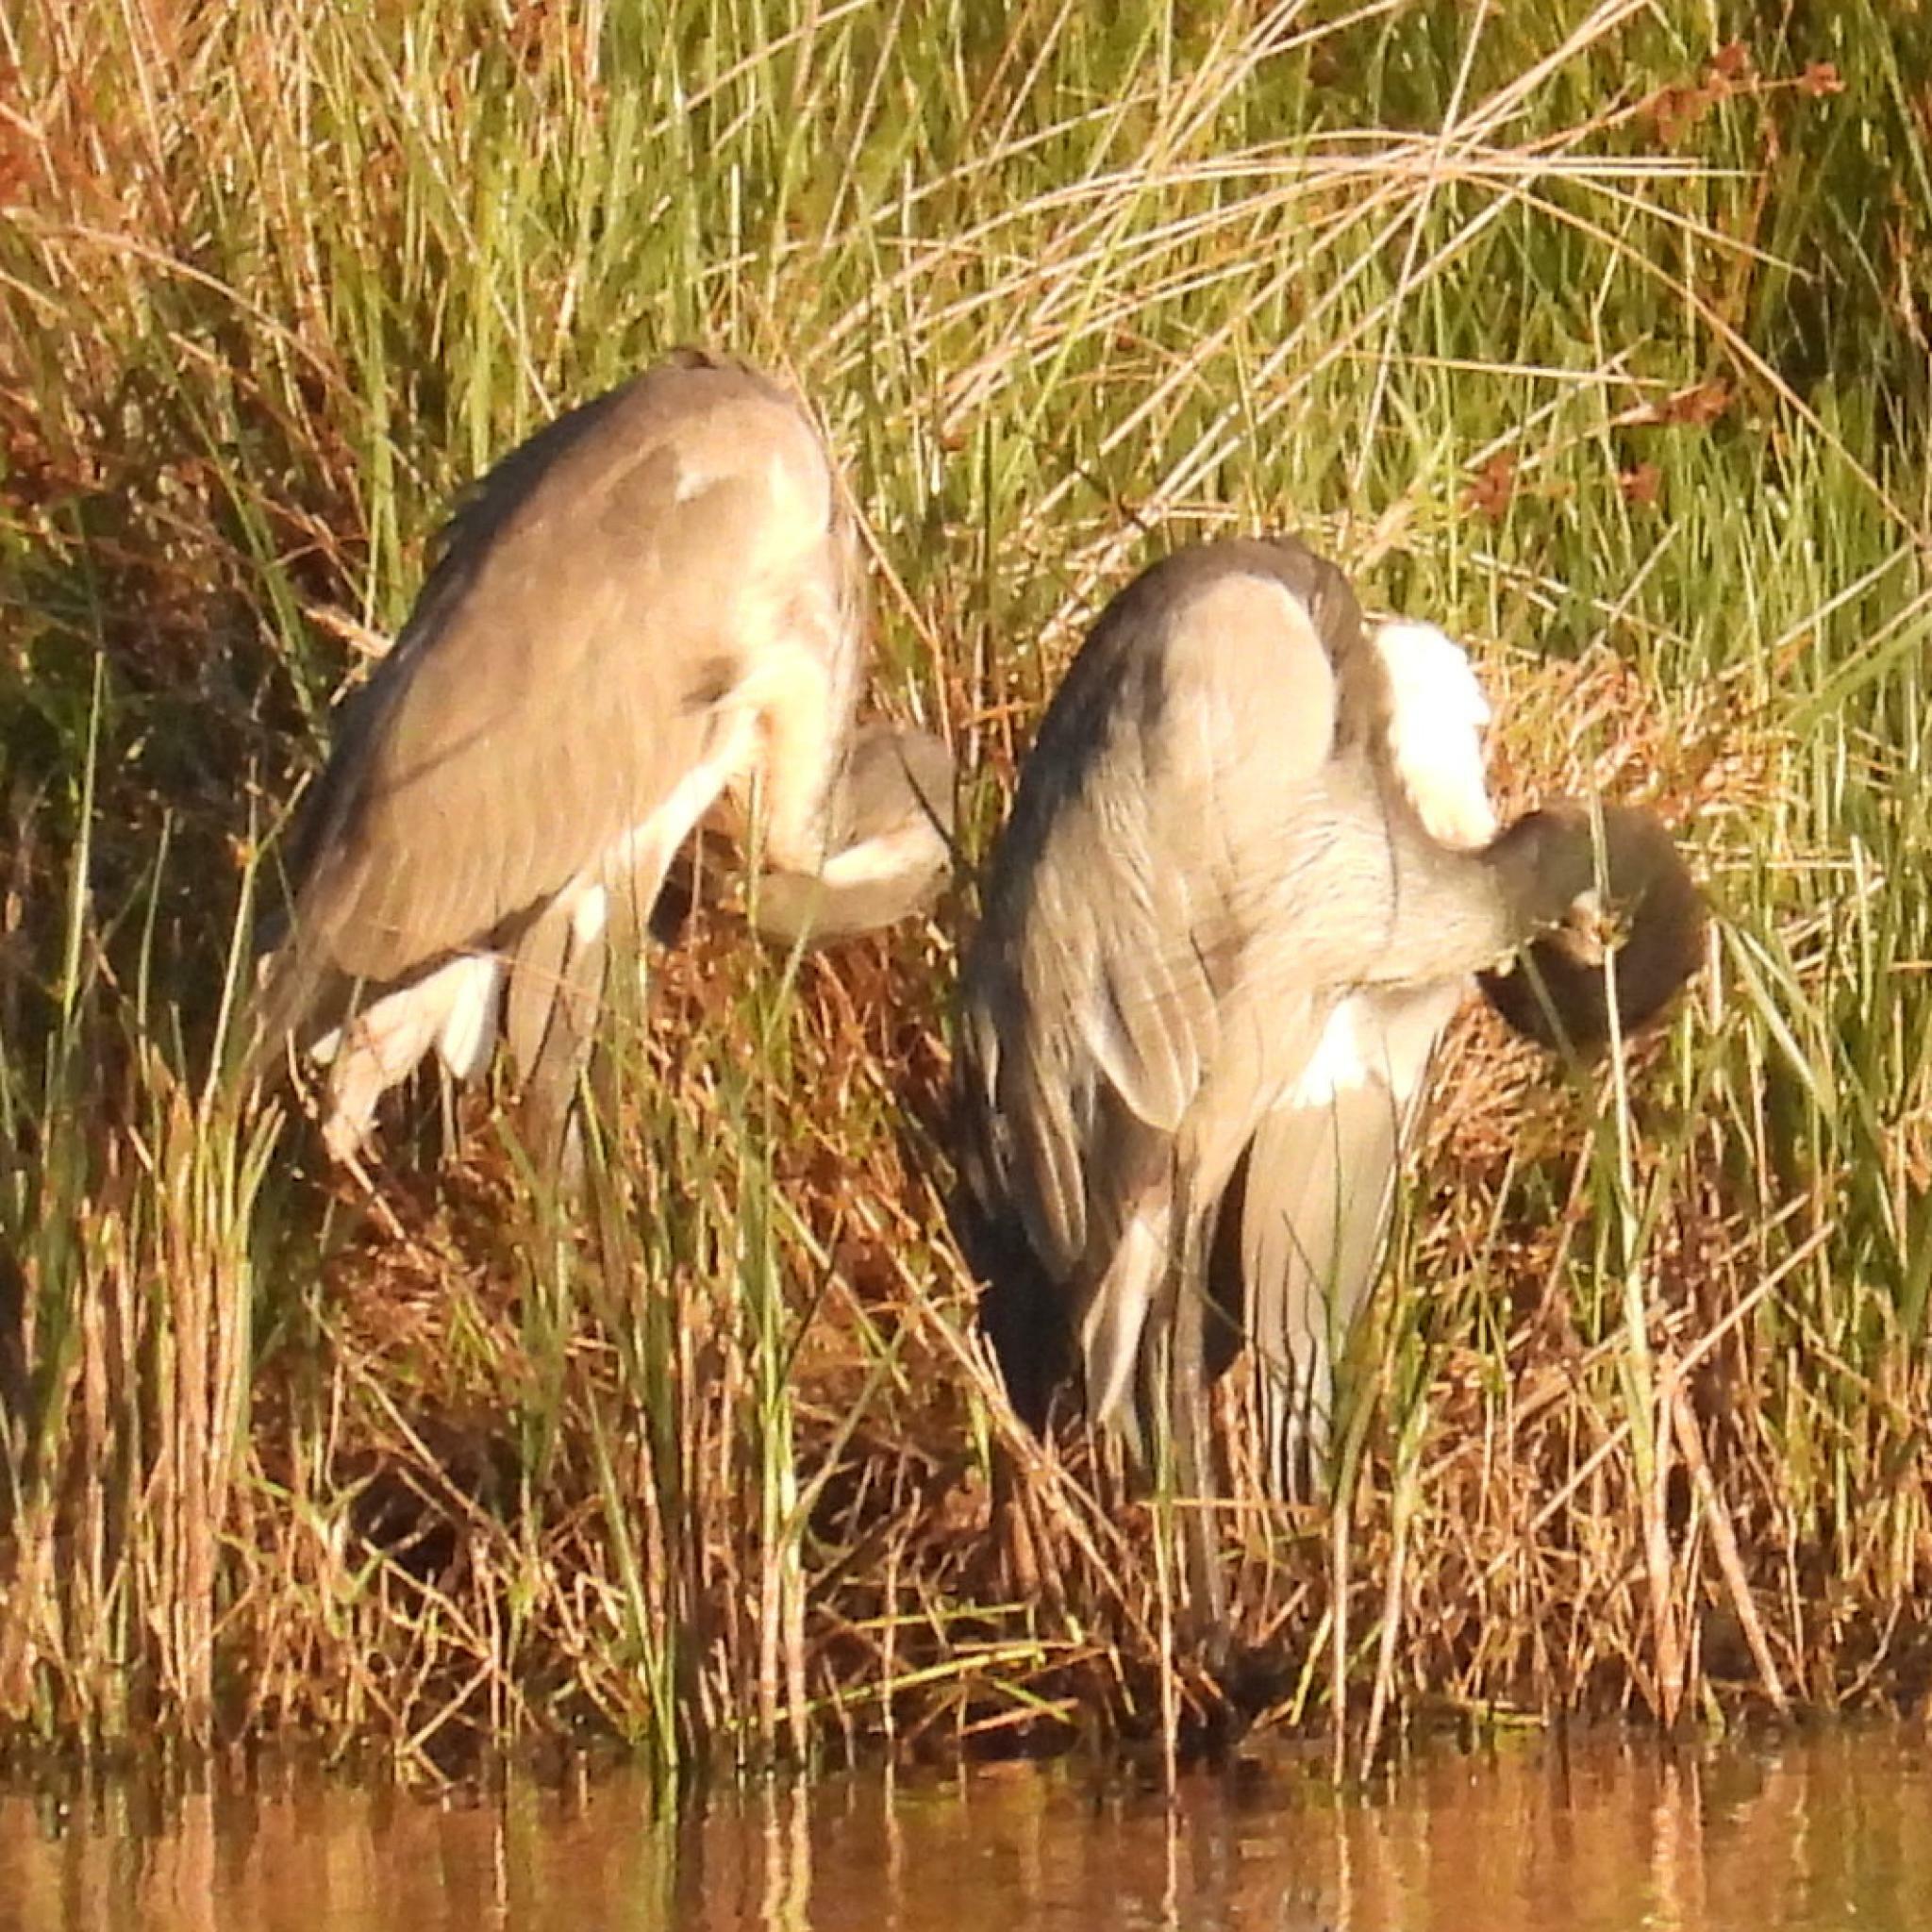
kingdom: Animalia
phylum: Chordata
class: Aves
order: Pelecaniformes
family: Ardeidae
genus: Ardea
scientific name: Ardea melanocephala
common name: Black-headed heron
